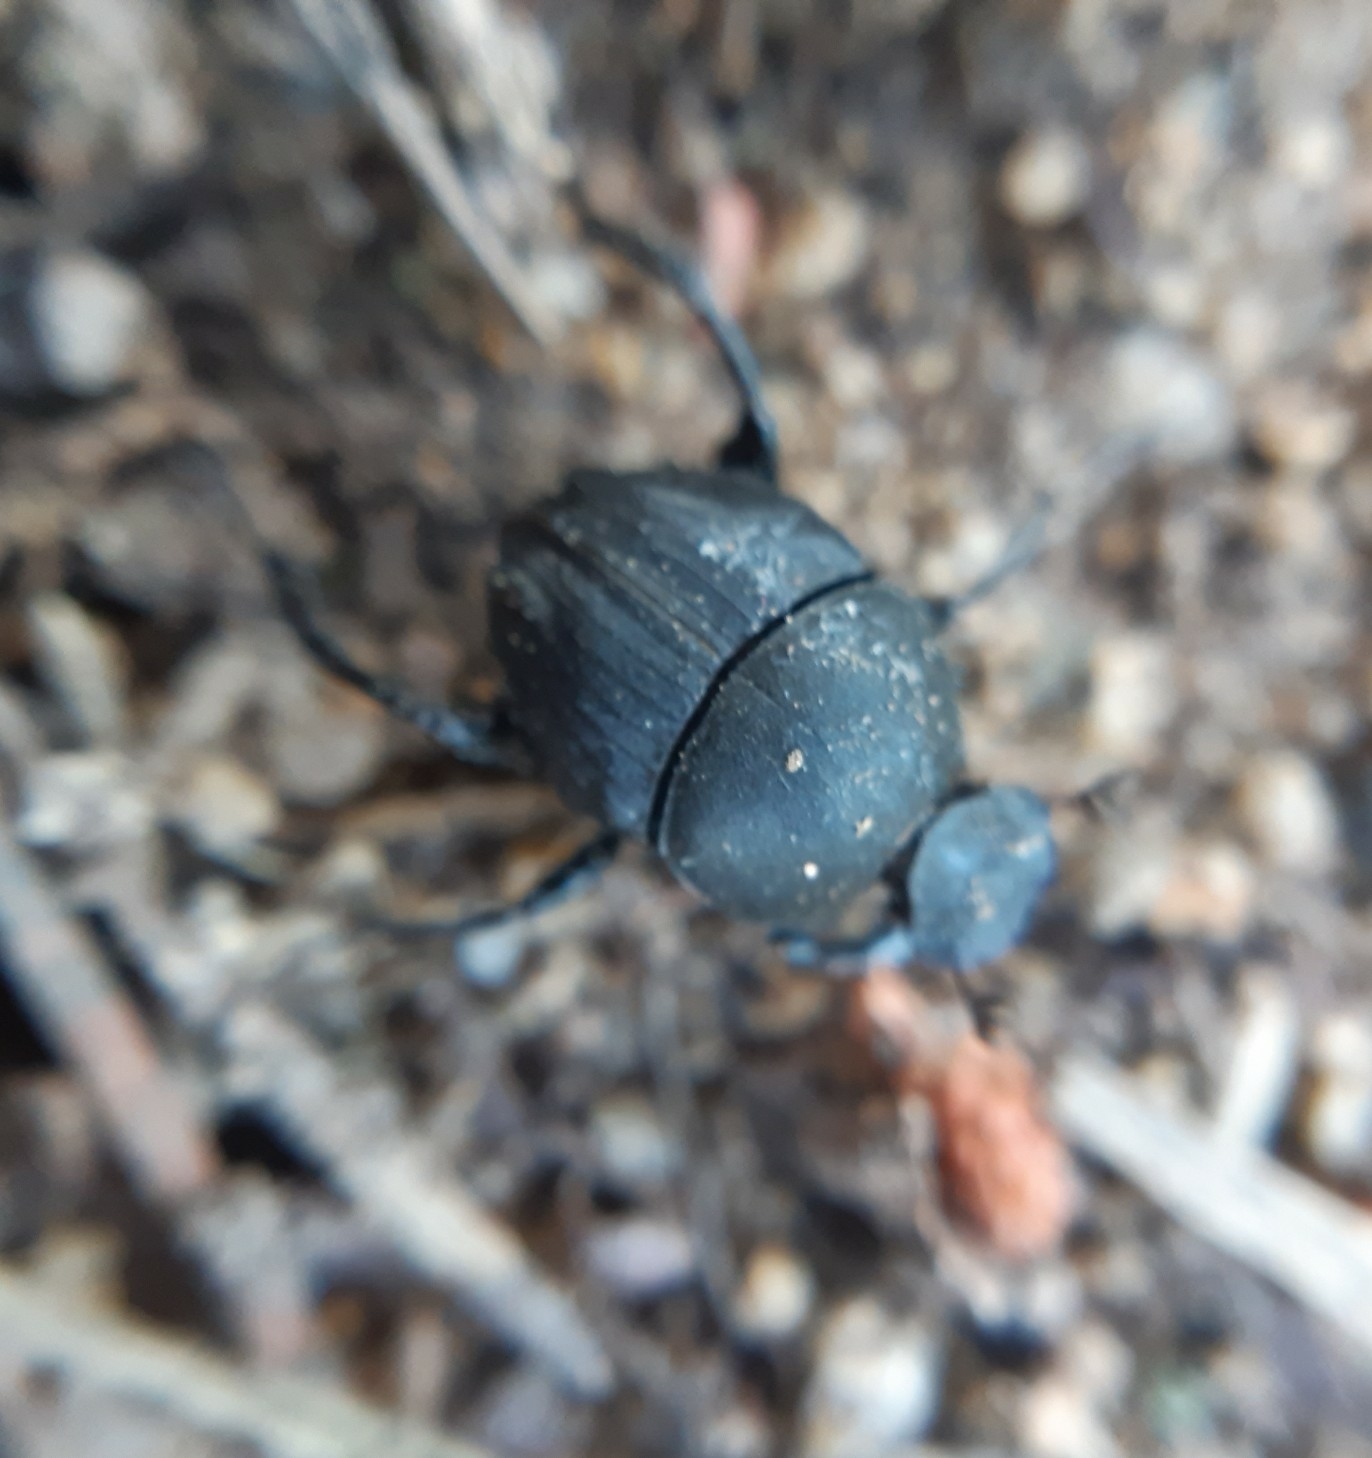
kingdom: Animalia
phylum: Arthropoda
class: Insecta
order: Coleoptera
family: Scarabaeidae
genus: Sisyphus
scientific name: Sisyphus schaefferi
